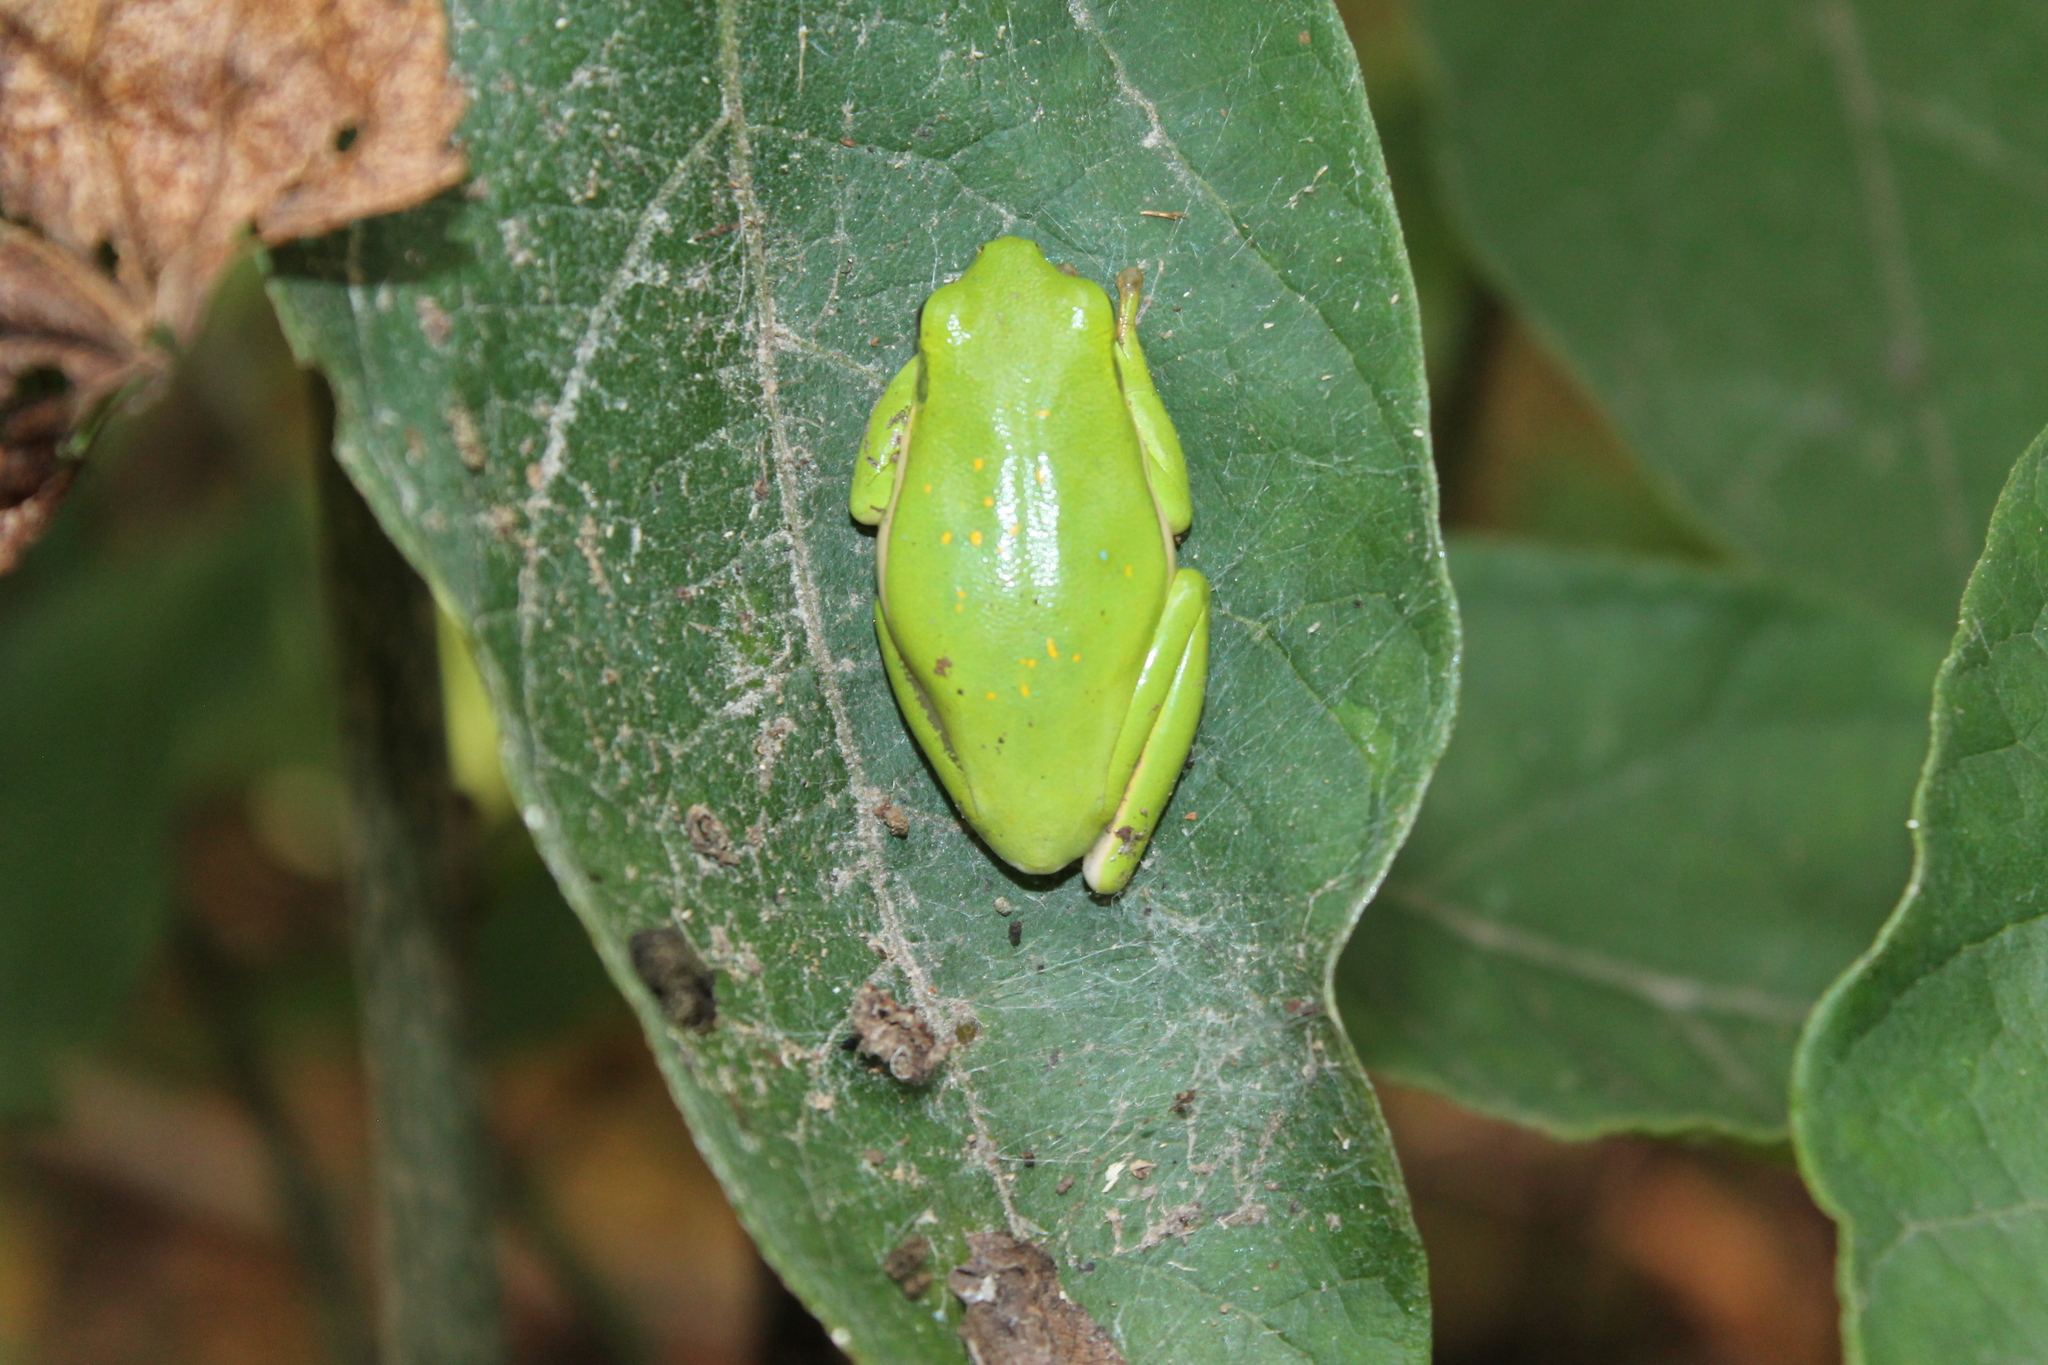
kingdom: Animalia
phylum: Chordata
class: Amphibia
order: Anura
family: Hylidae
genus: Dryophytes
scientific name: Dryophytes cinereus
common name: Green treefrog
